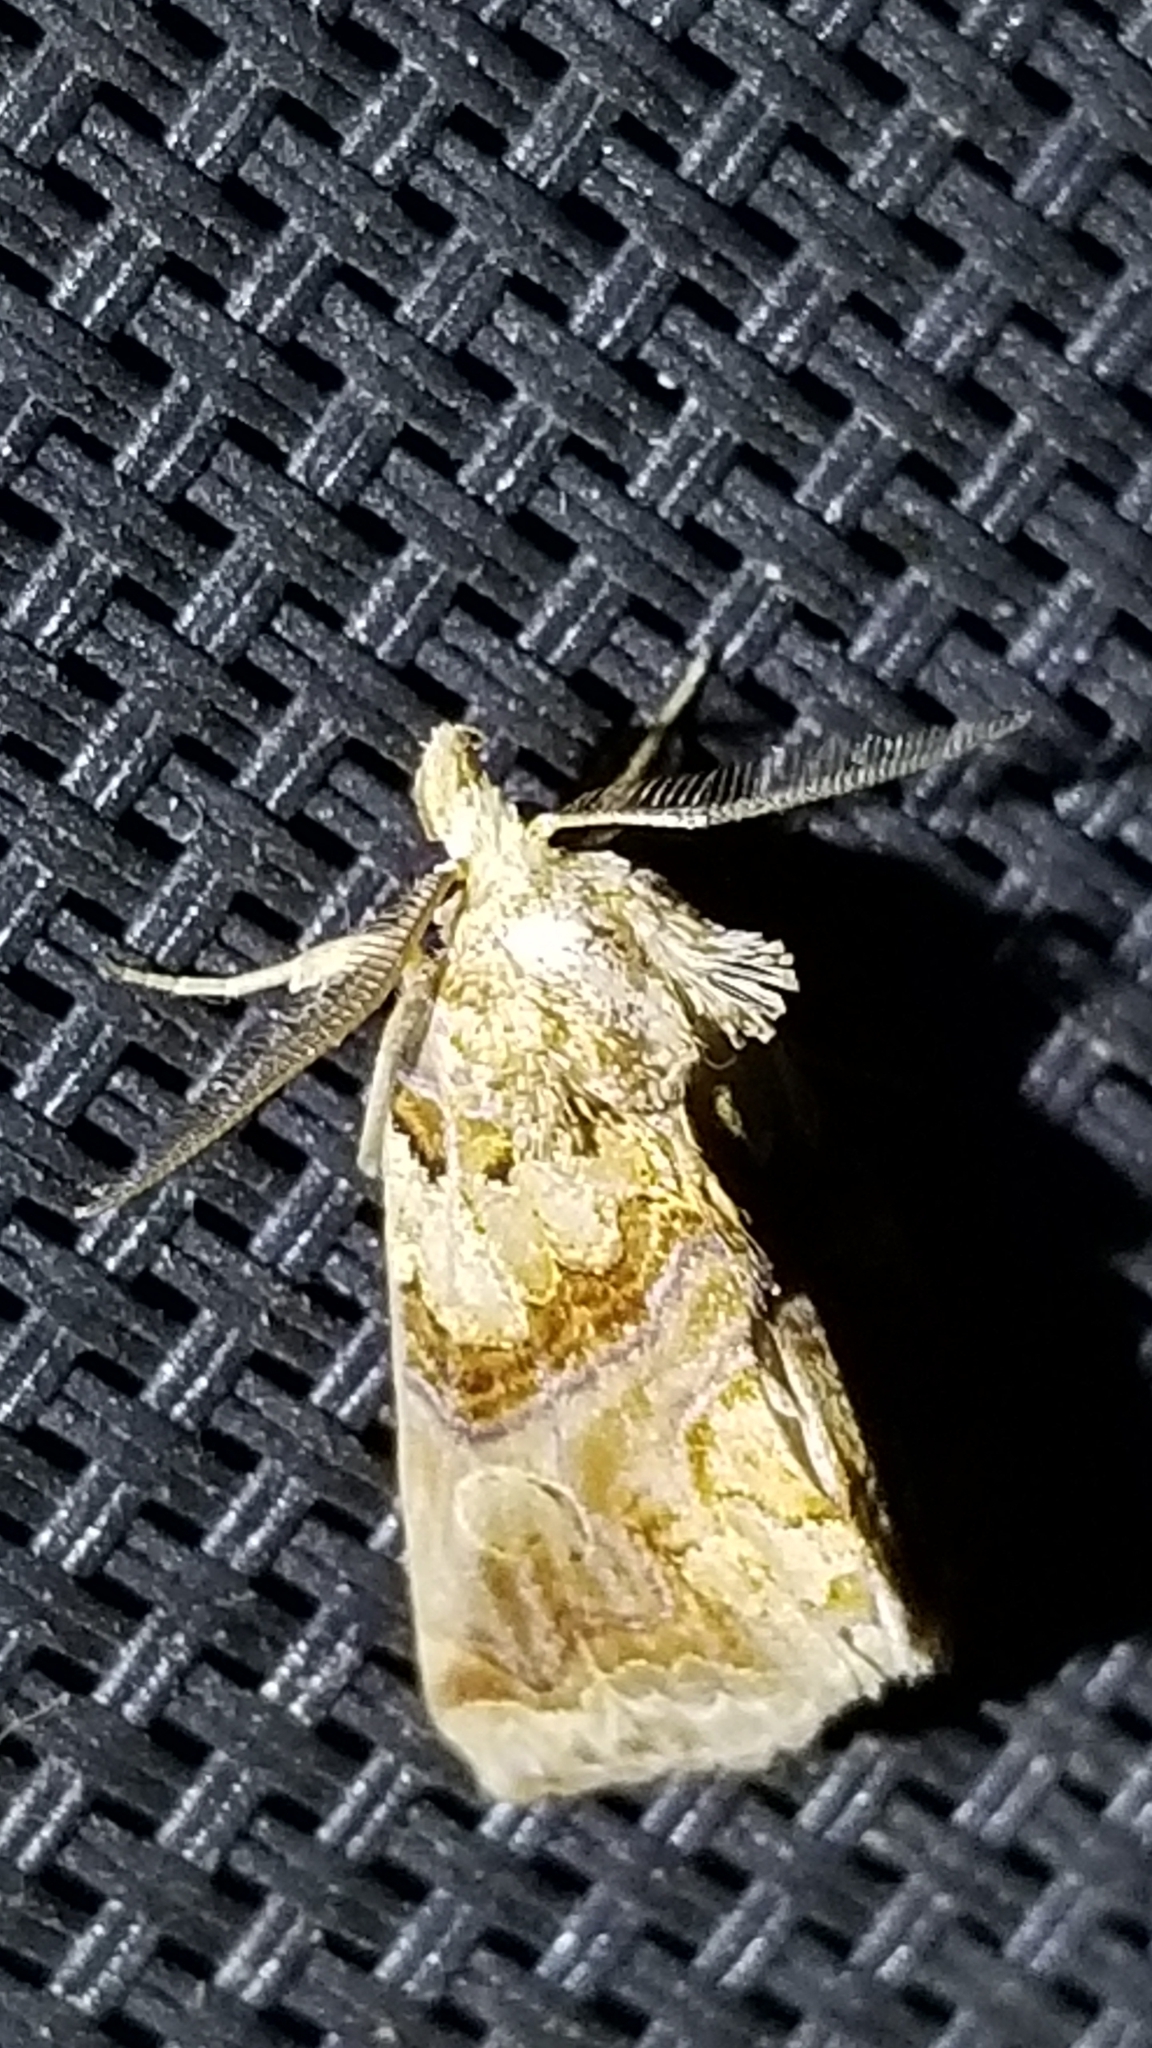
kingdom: Animalia
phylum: Arthropoda
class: Insecta
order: Lepidoptera
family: Erebidae
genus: Plusiodonta
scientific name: Plusiodonta compressipalpis
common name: Moonseed moth
